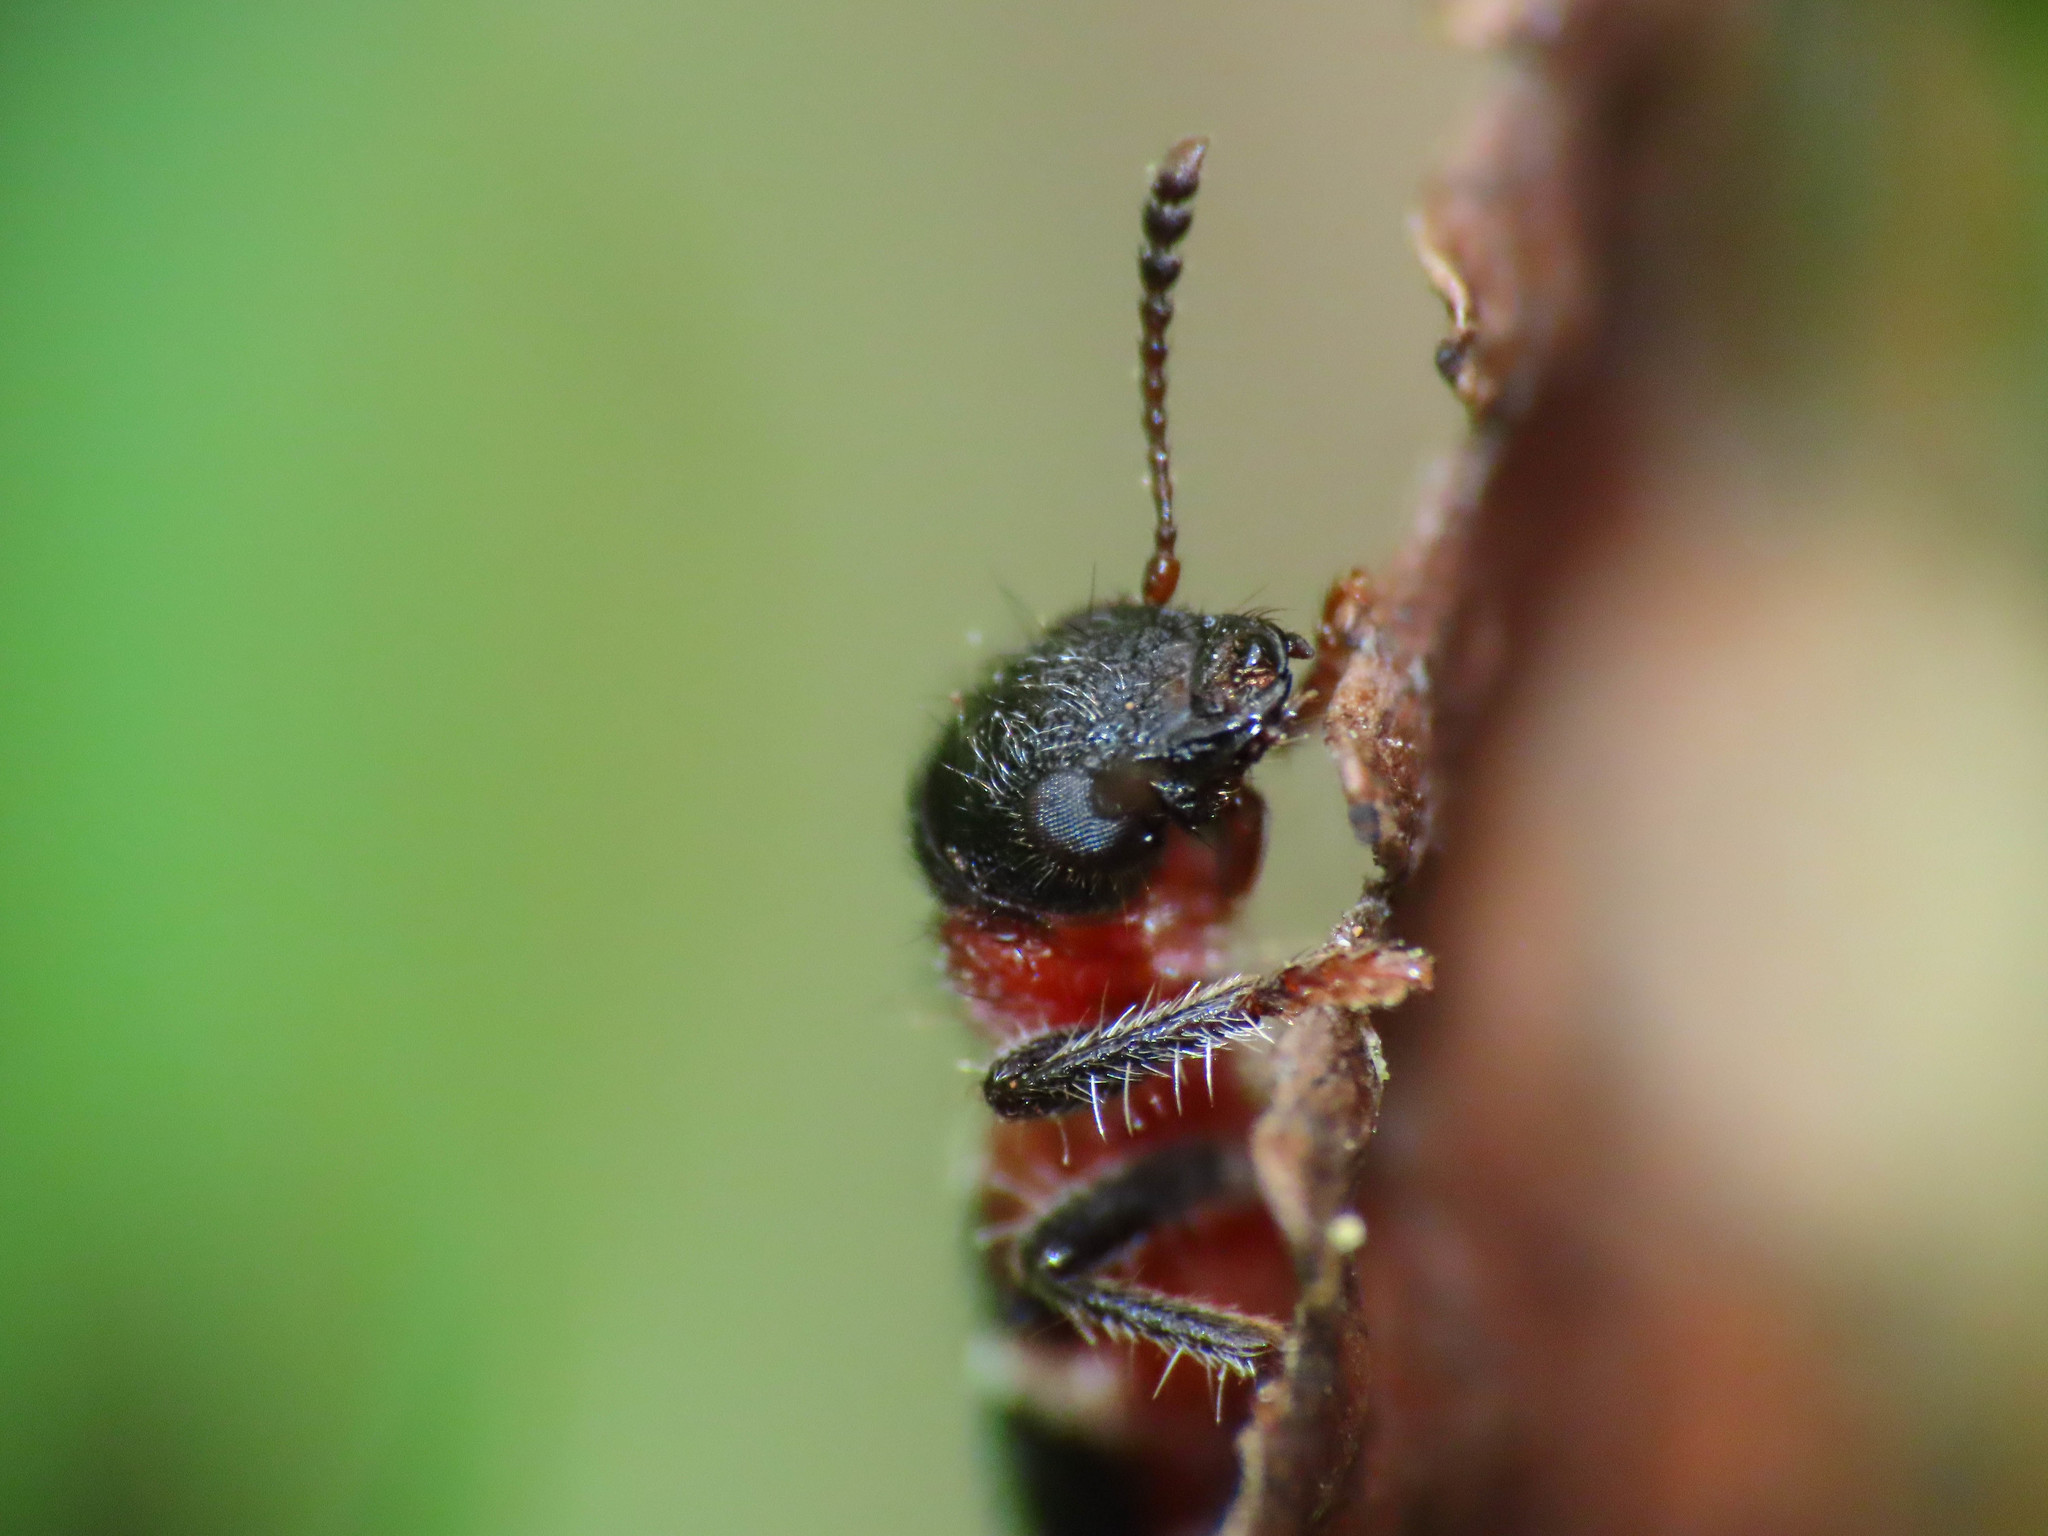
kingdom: Animalia
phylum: Arthropoda
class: Insecta
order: Coleoptera
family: Cleridae
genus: Thanasimus
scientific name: Thanasimus formicarius
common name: Ant beetle
